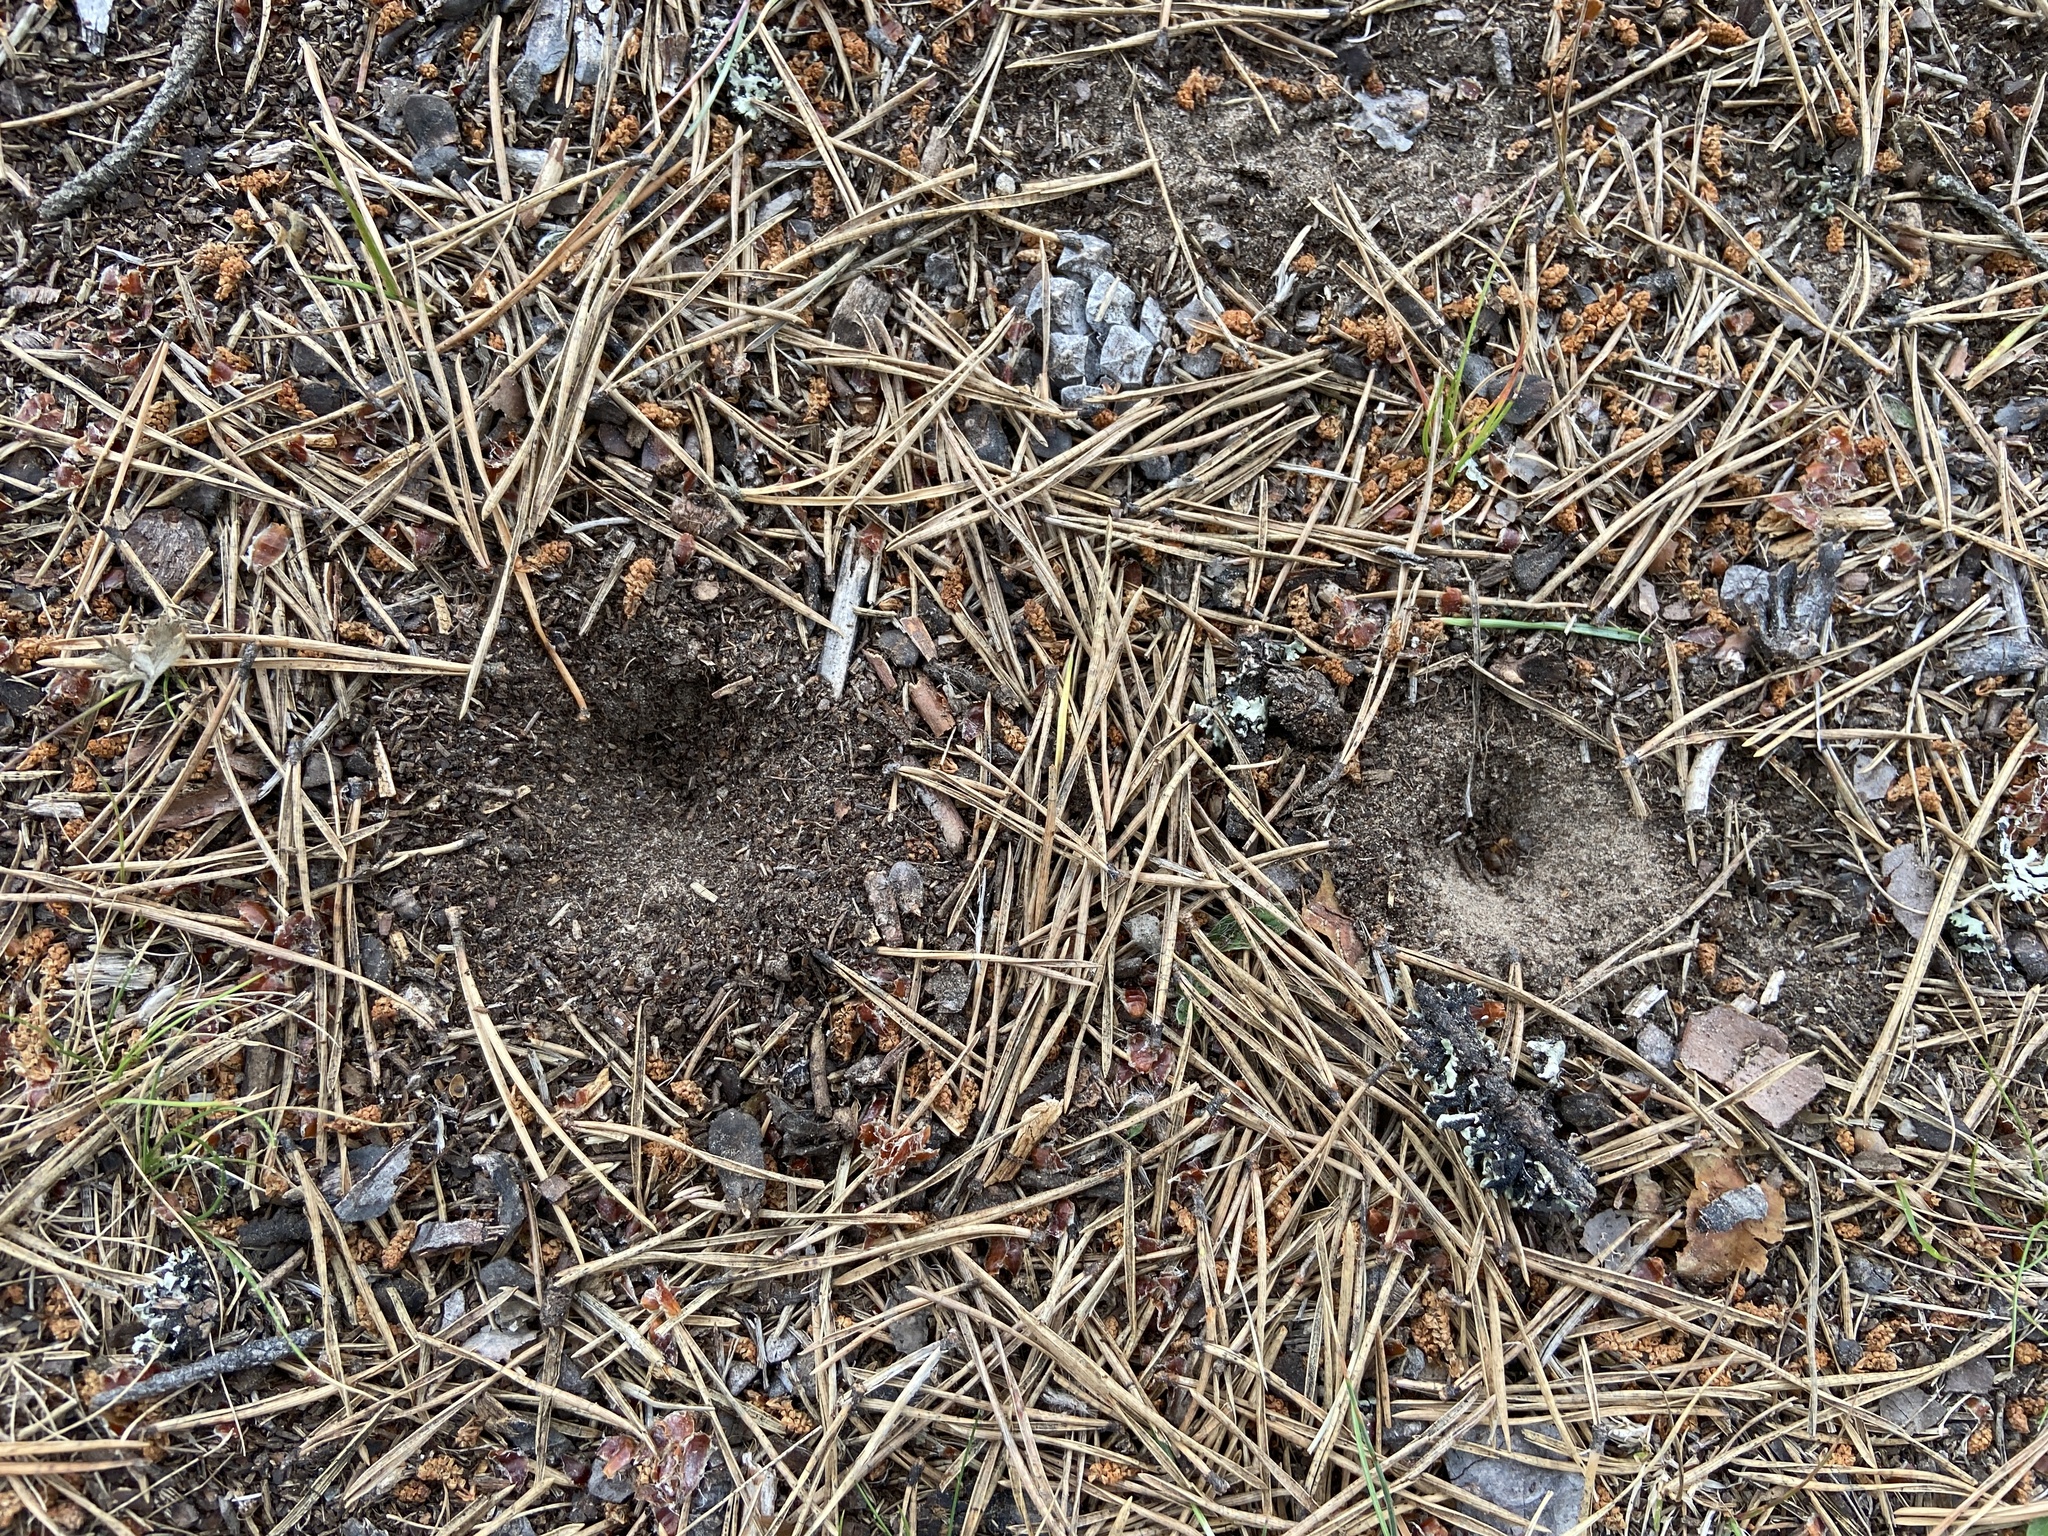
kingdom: Animalia
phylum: Arthropoda
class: Insecta
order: Neuroptera
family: Myrmeleontidae
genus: Myrmeleon
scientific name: Myrmeleon formicarius
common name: Ant-lion
